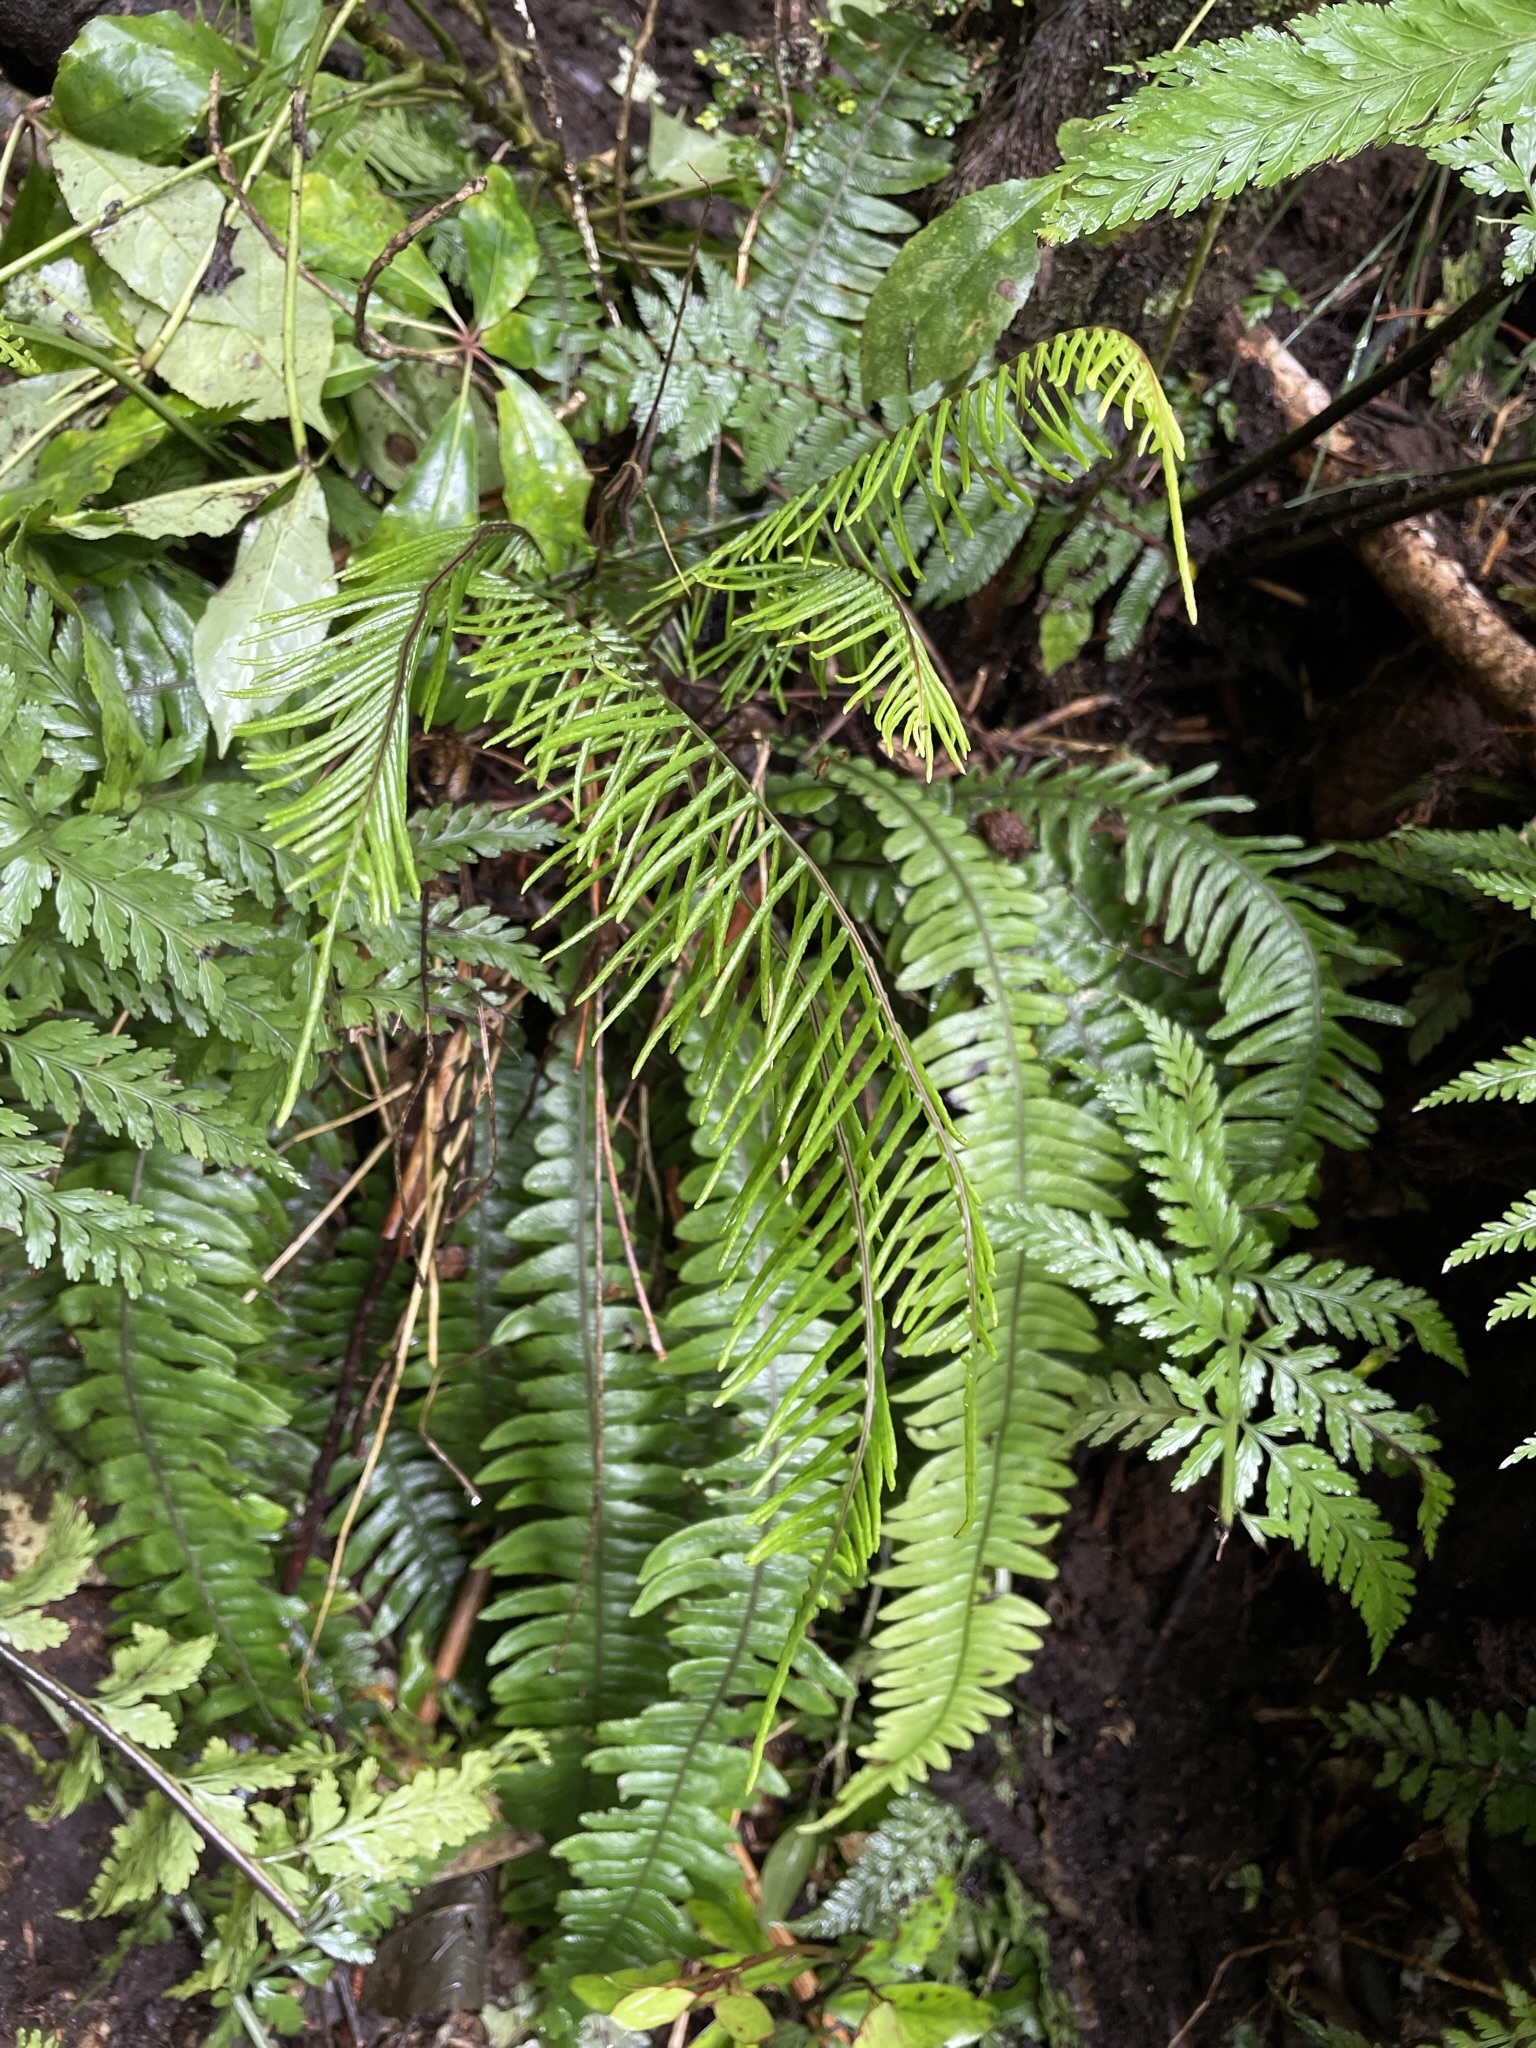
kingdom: Plantae
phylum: Tracheophyta
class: Polypodiopsida
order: Polypodiales
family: Blechnaceae
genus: Austroblechnum
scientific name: Austroblechnum lanceolatum
